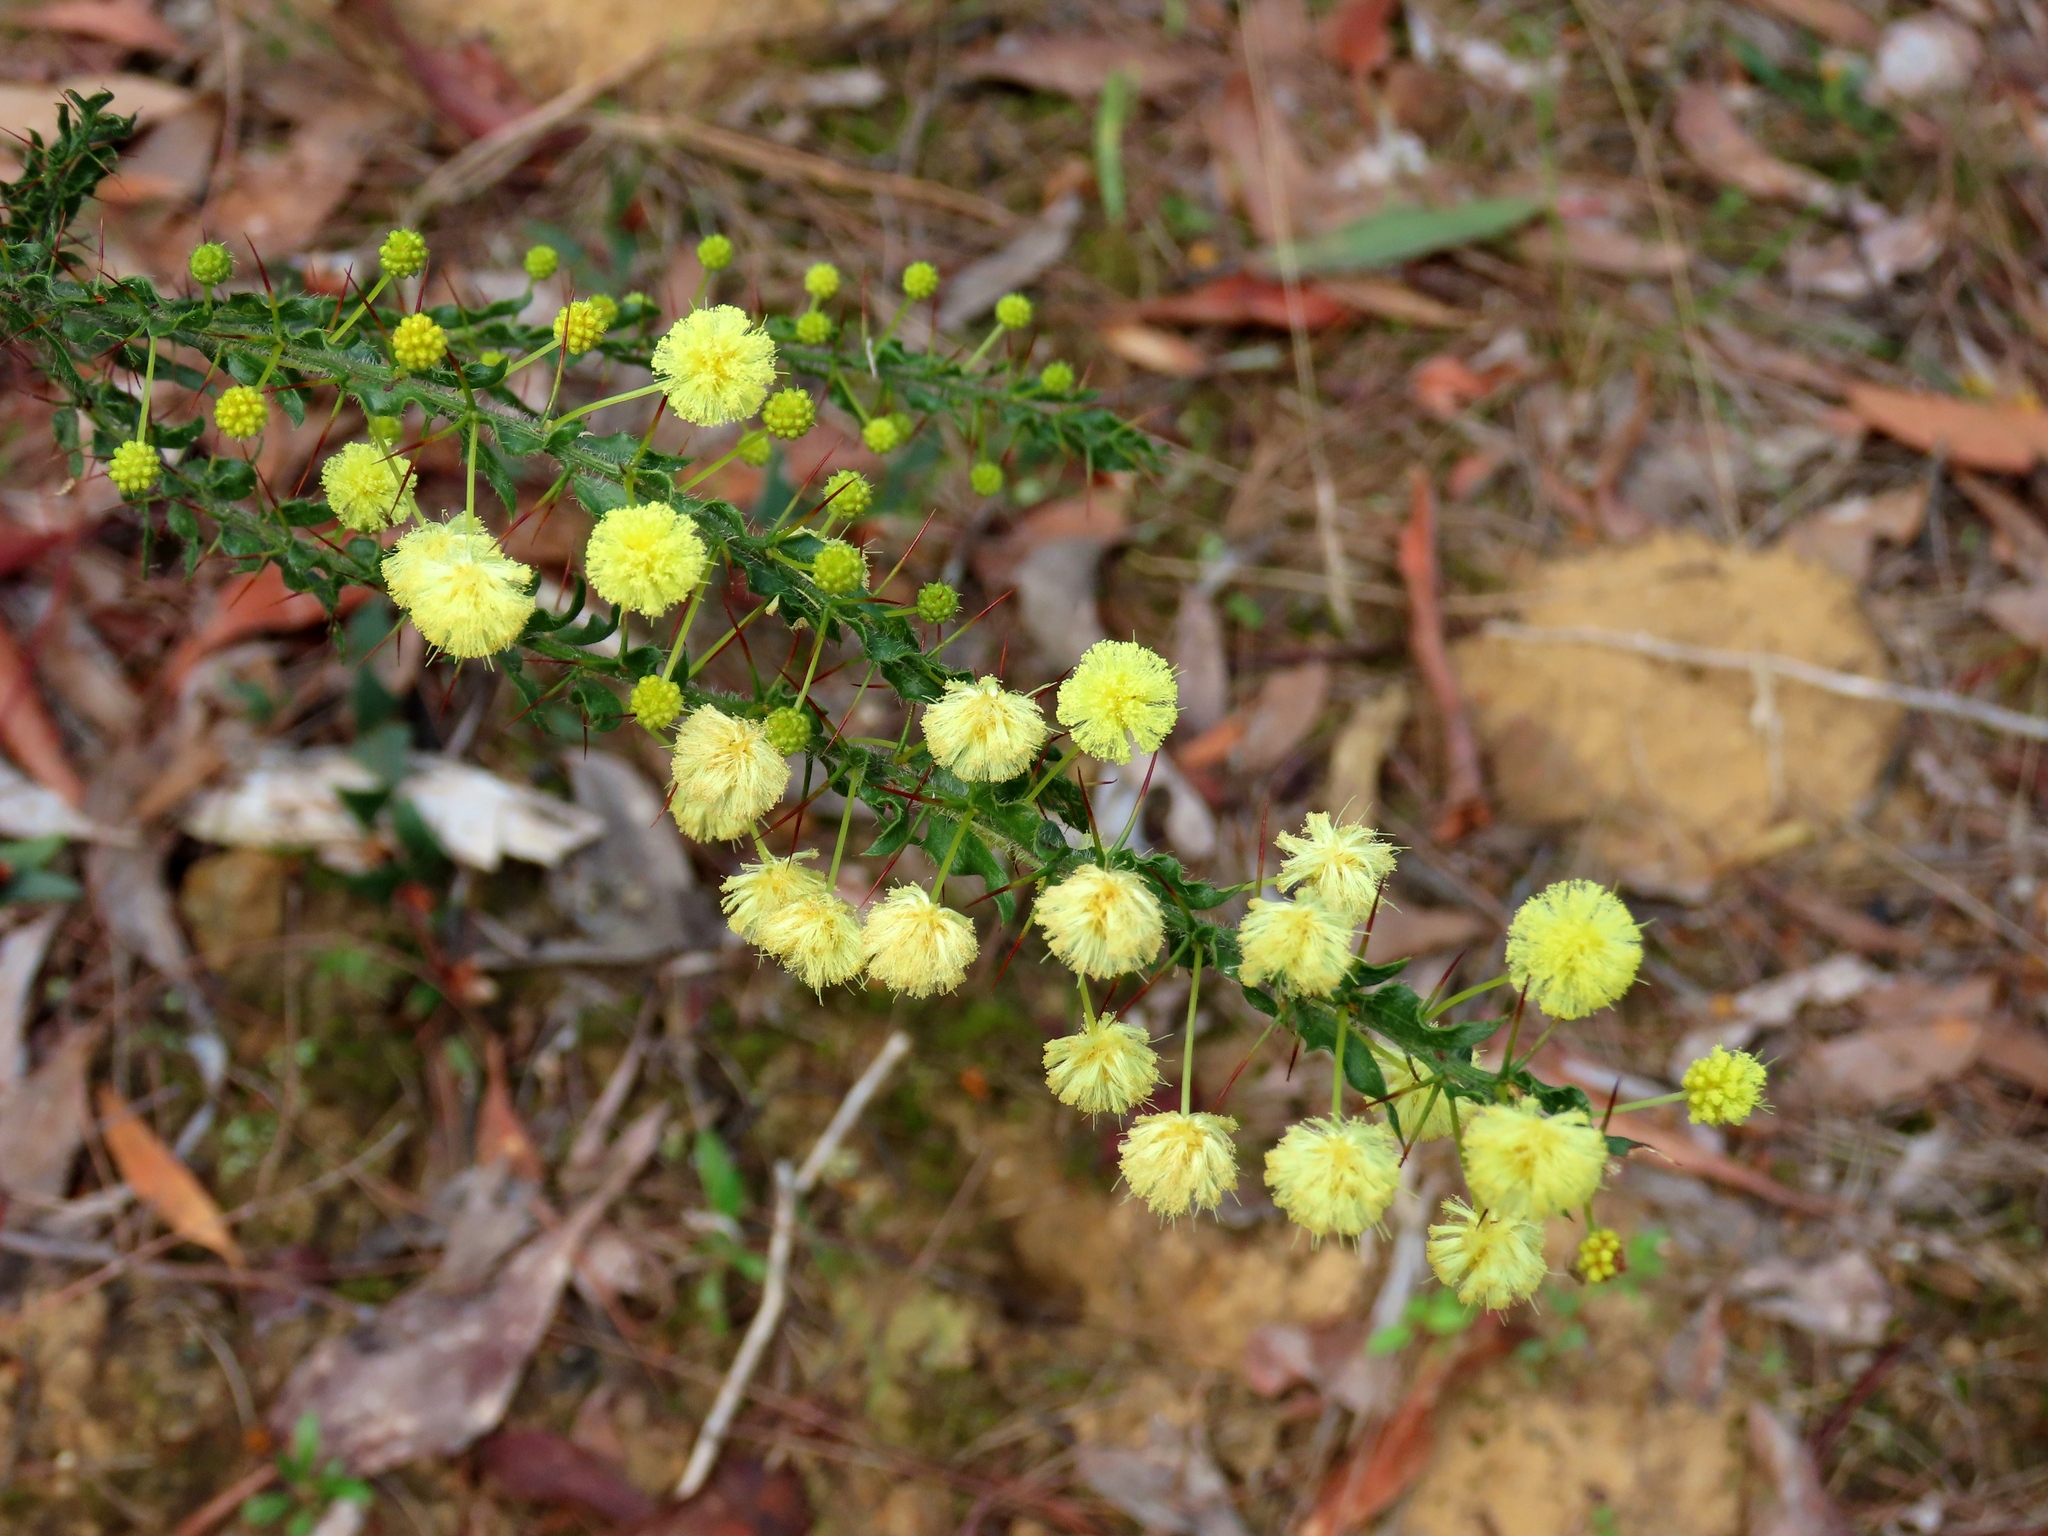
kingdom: Plantae
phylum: Tracheophyta
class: Magnoliopsida
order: Fabales
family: Fabaceae
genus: Acacia
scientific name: Acacia paradoxa
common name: Paradox acacia
